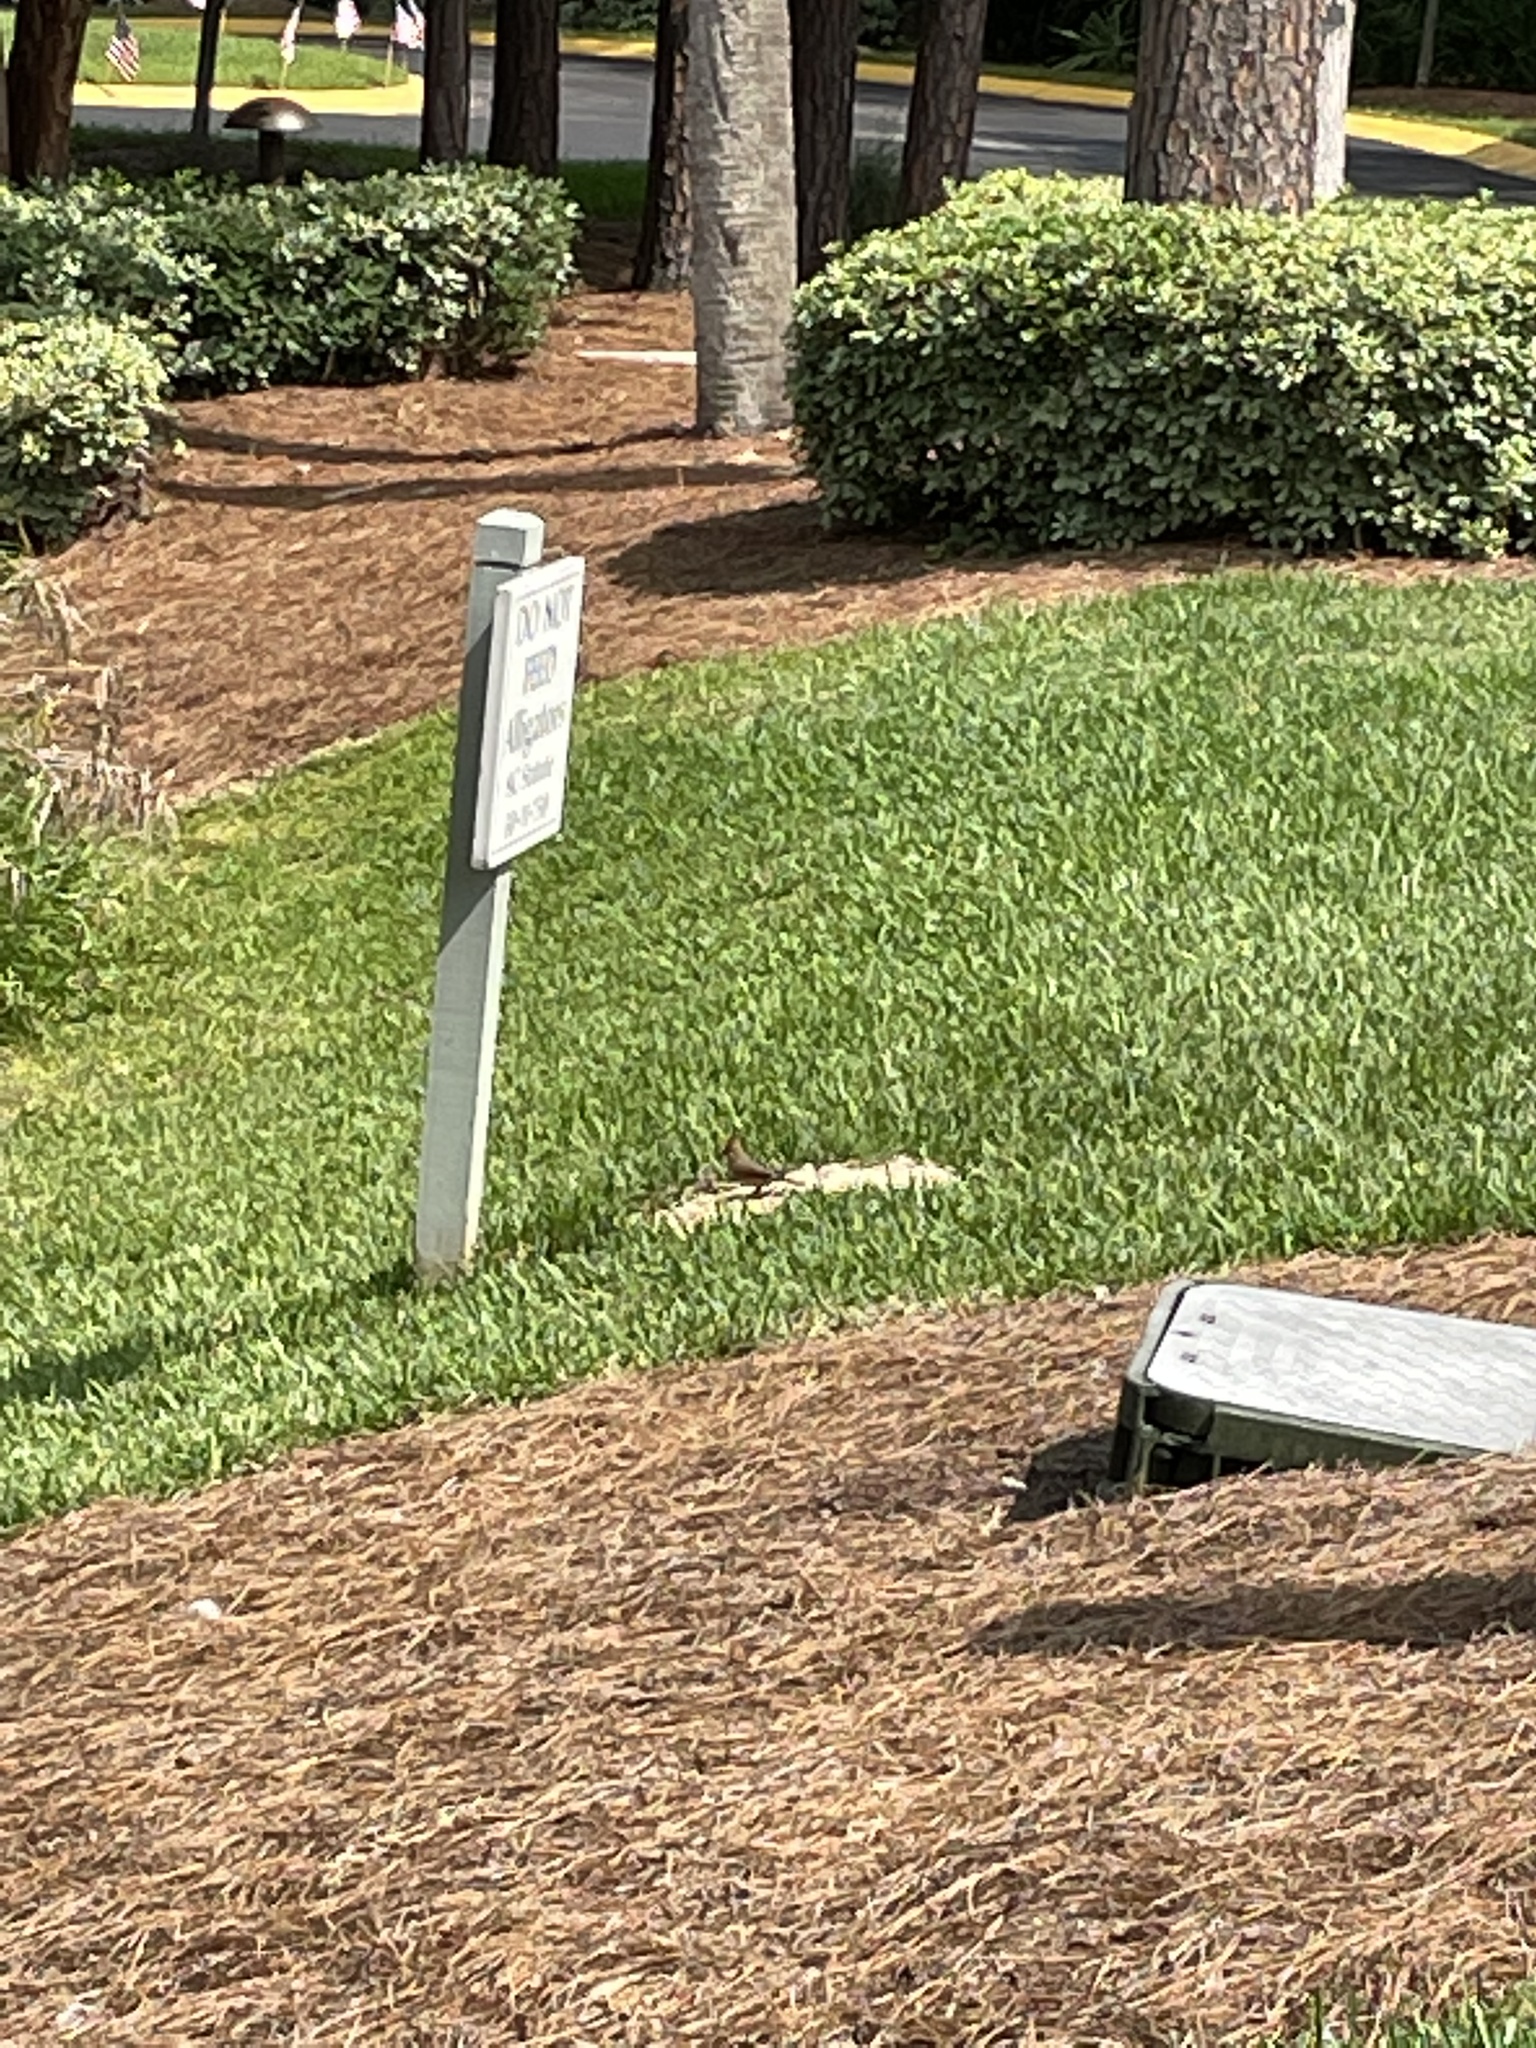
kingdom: Animalia
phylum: Chordata
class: Aves
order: Passeriformes
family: Cardinalidae
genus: Cardinalis
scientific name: Cardinalis cardinalis
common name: Northern cardinal
